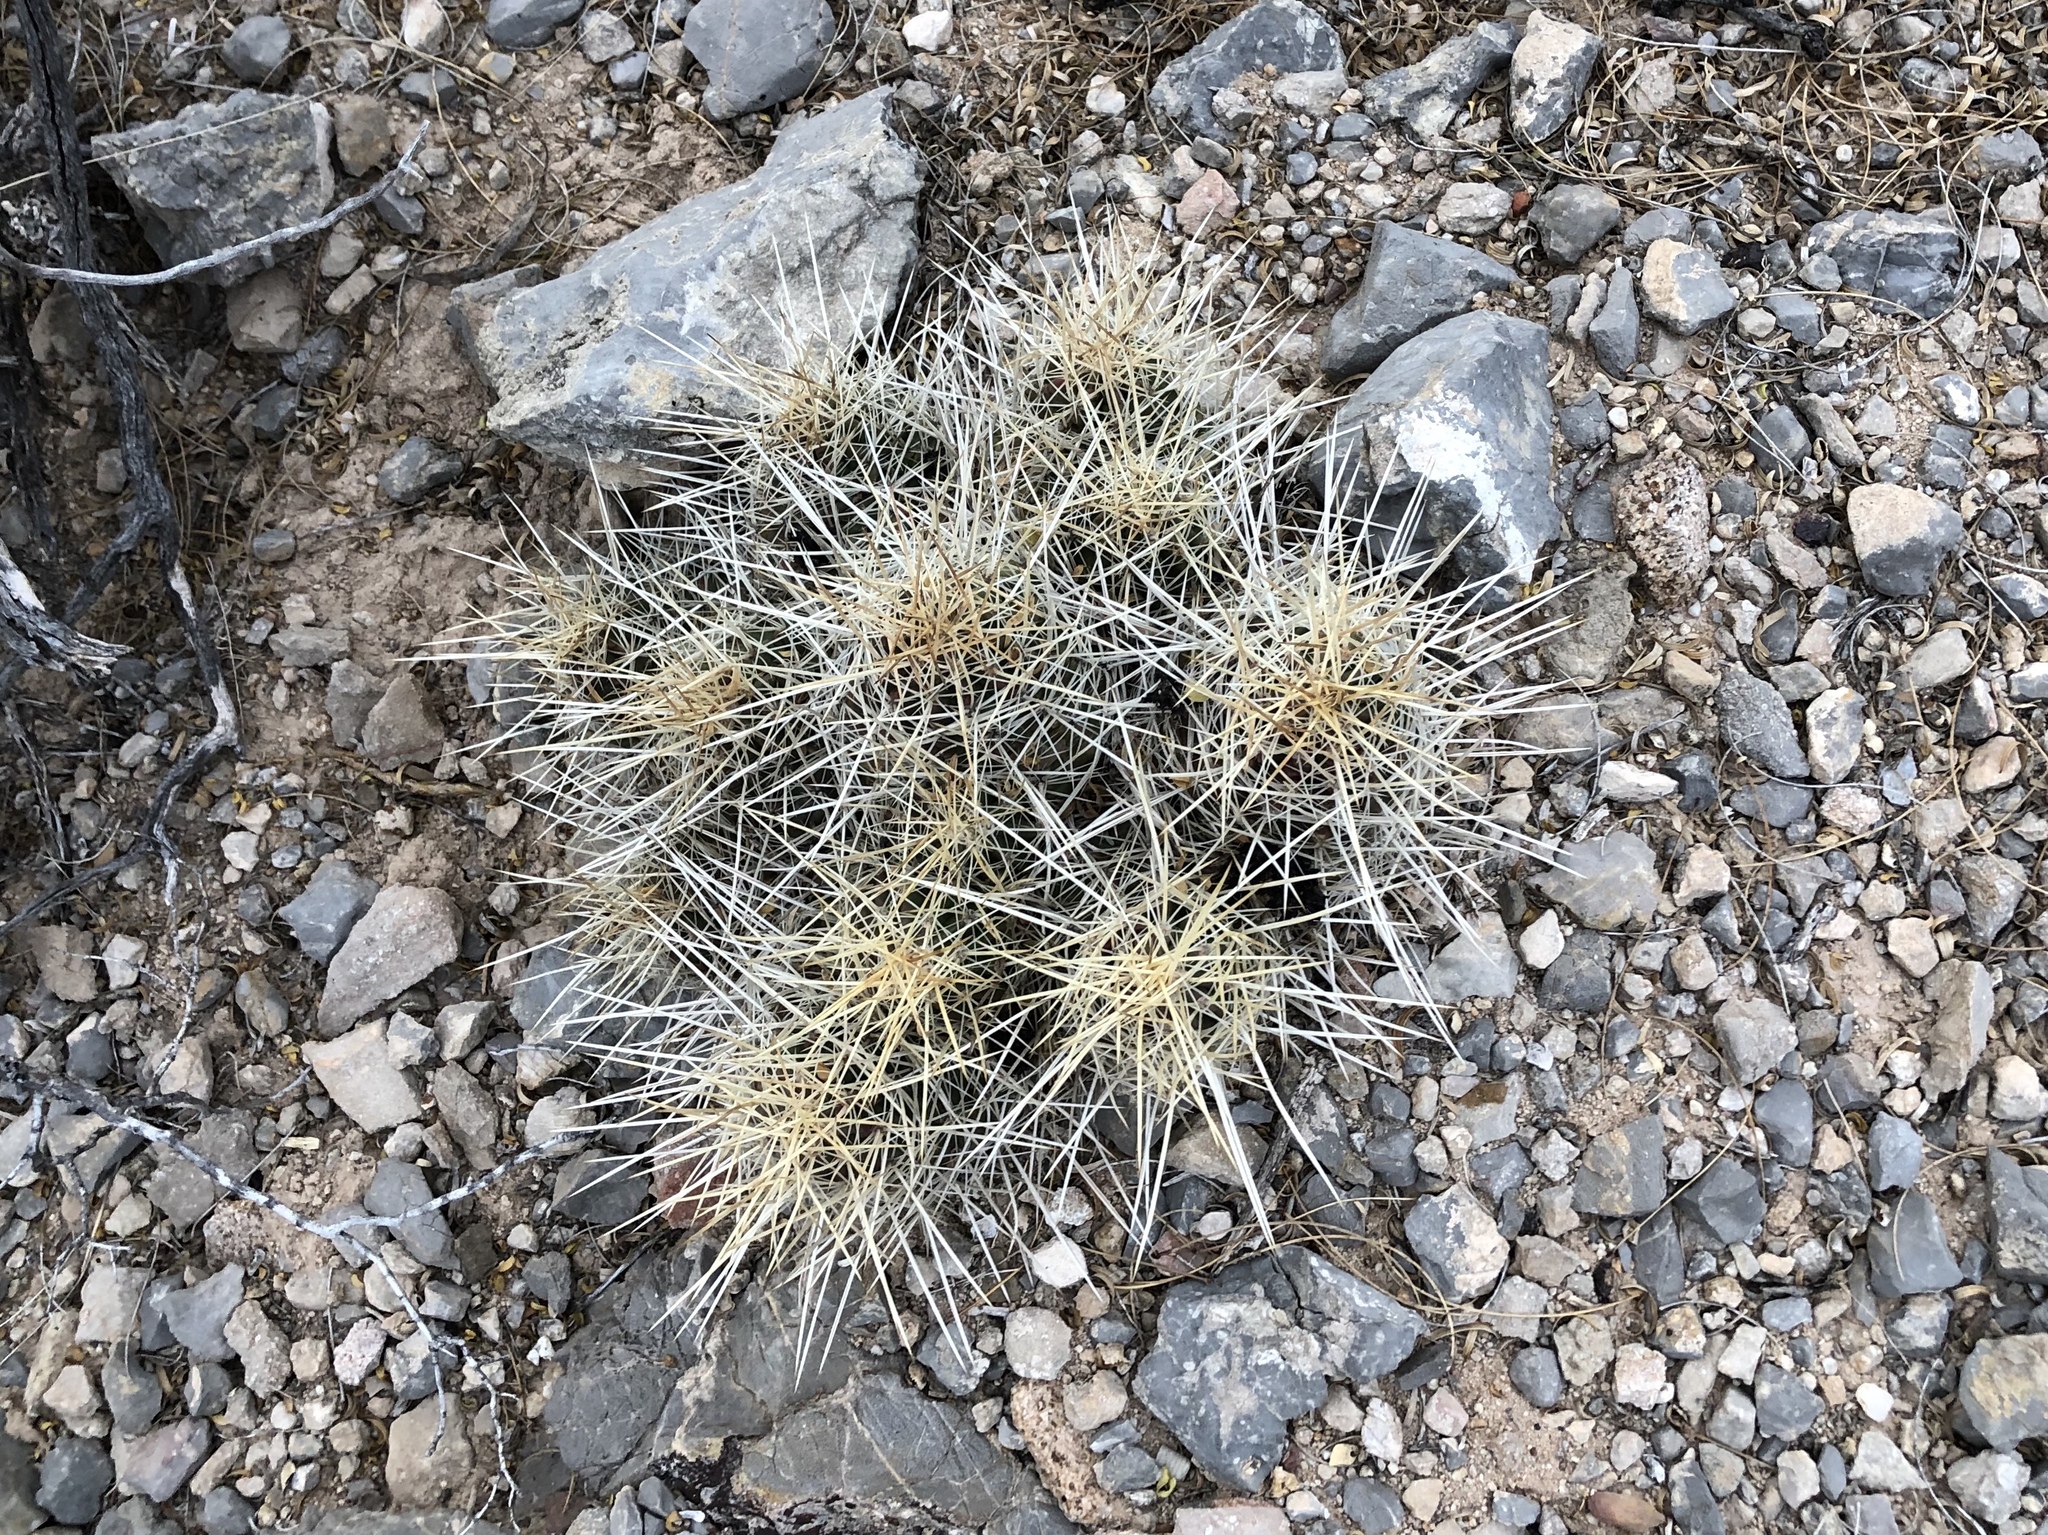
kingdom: Plantae
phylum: Tracheophyta
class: Magnoliopsida
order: Caryophyllales
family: Cactaceae
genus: Echinocereus
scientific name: Echinocereus stramineus
